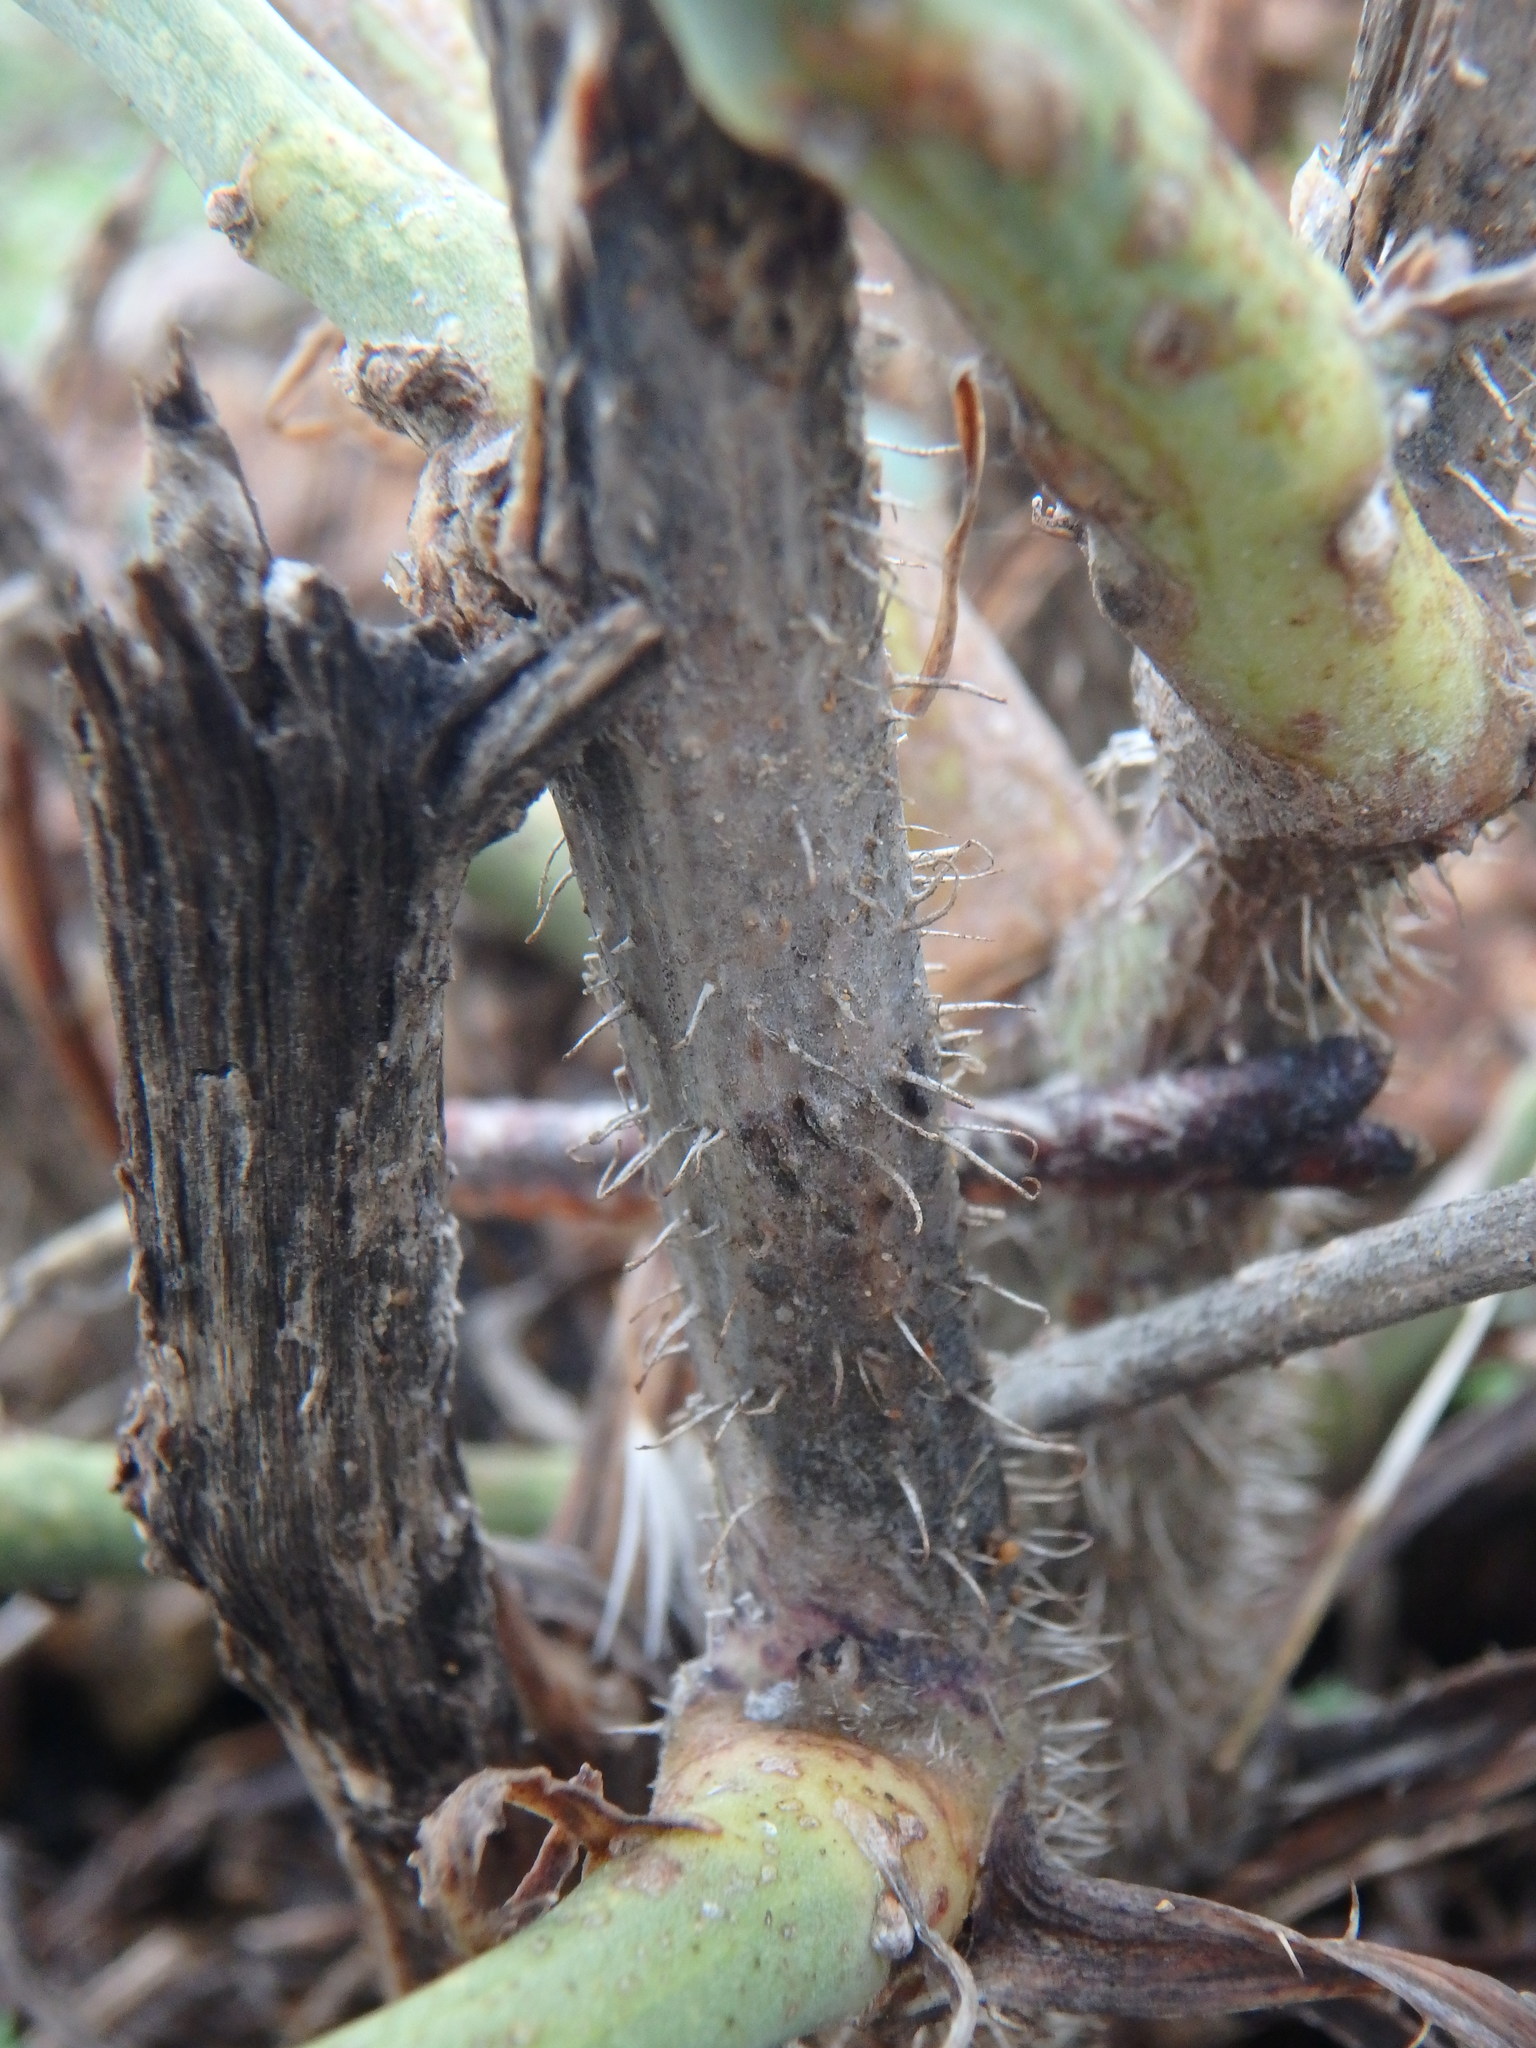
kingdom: Plantae
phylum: Tracheophyta
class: Magnoliopsida
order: Asterales
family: Asteraceae
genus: Chondrilla
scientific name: Chondrilla juncea
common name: Skeleton weed
